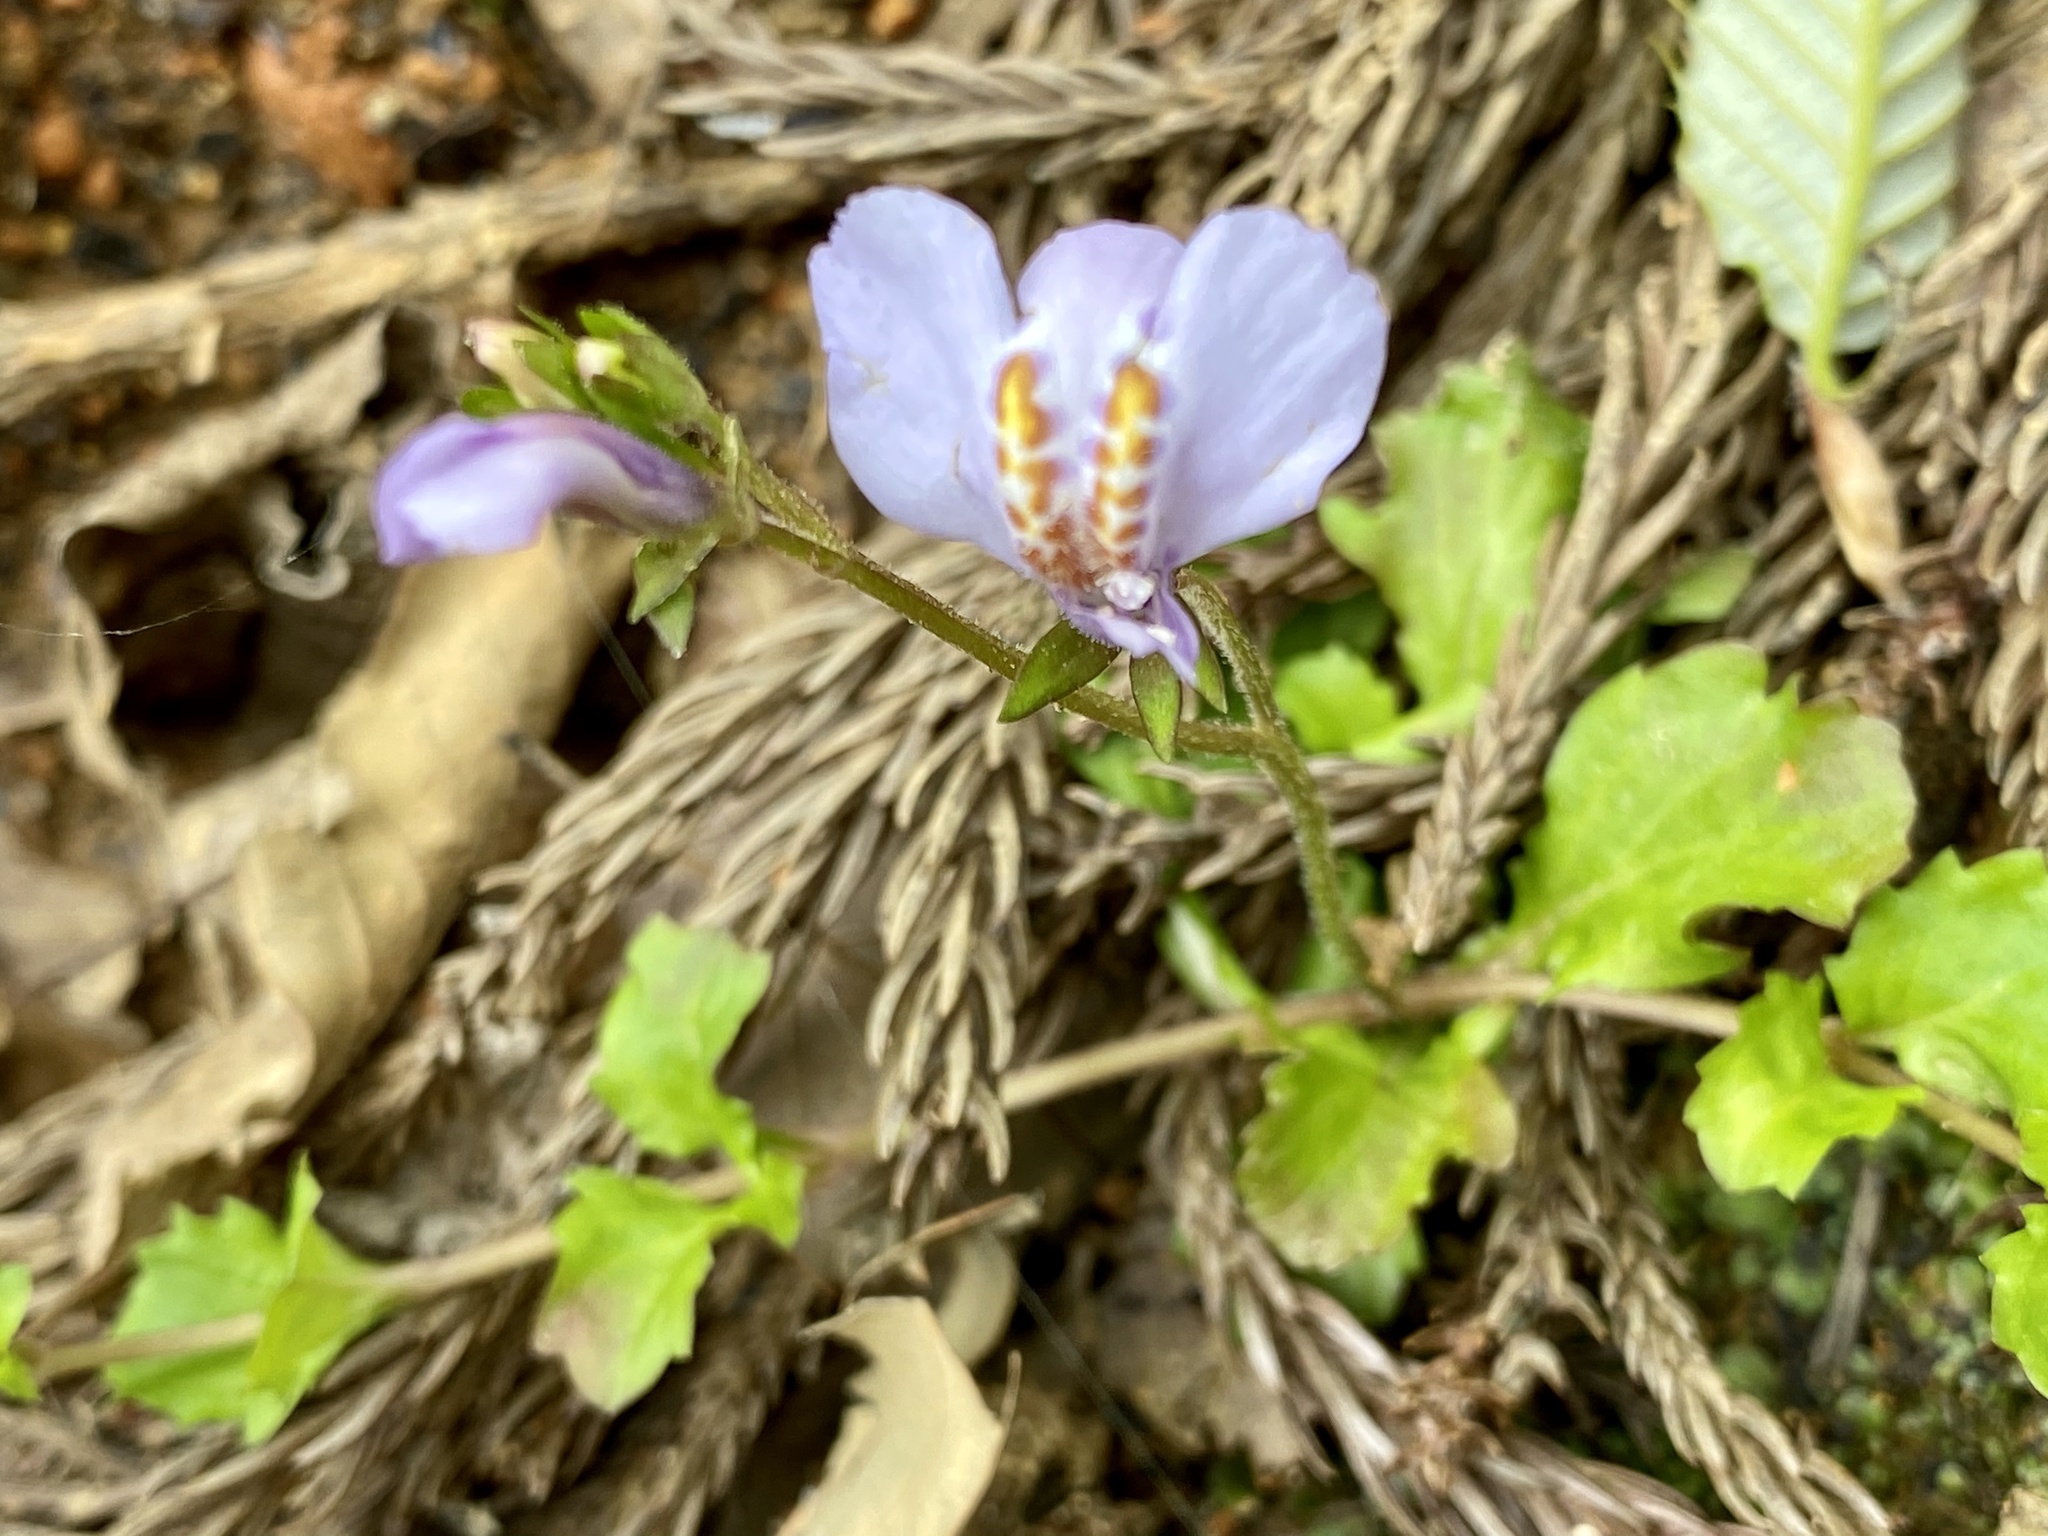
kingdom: Plantae
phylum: Tracheophyta
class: Magnoliopsida
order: Lamiales
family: Mazaceae
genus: Mazus
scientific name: Mazus miquelii
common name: Miquel's mazus
